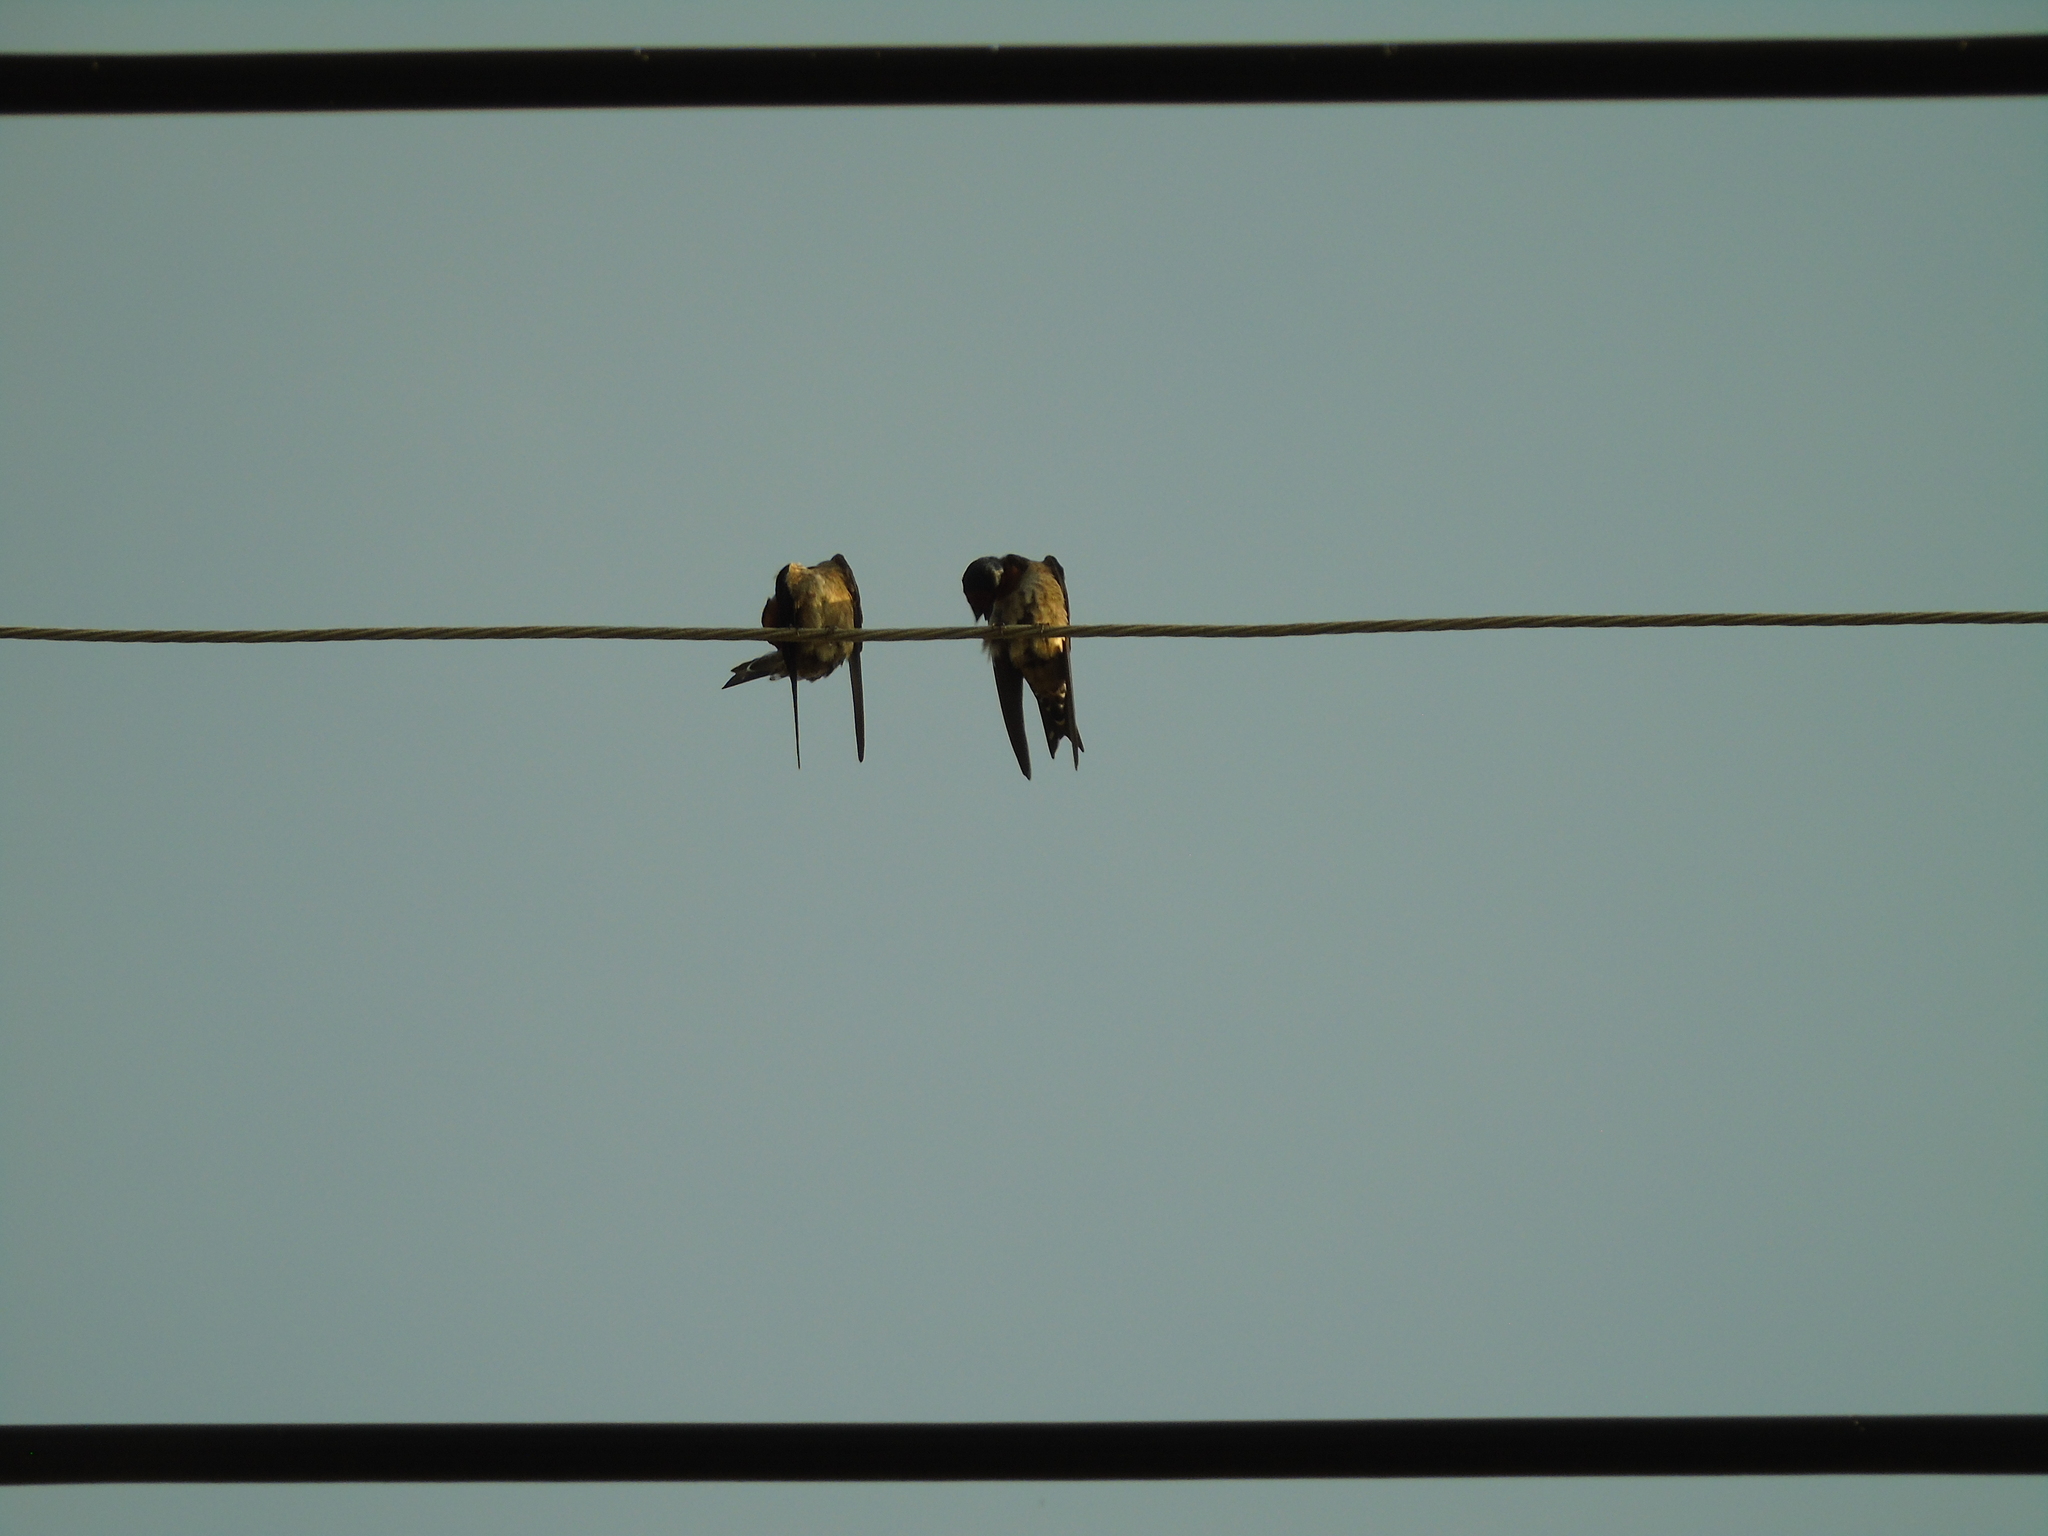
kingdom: Animalia
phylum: Chordata
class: Aves
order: Passeriformes
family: Hirundinidae
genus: Hirundo
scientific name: Hirundo tahitica
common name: Pacific swallow
